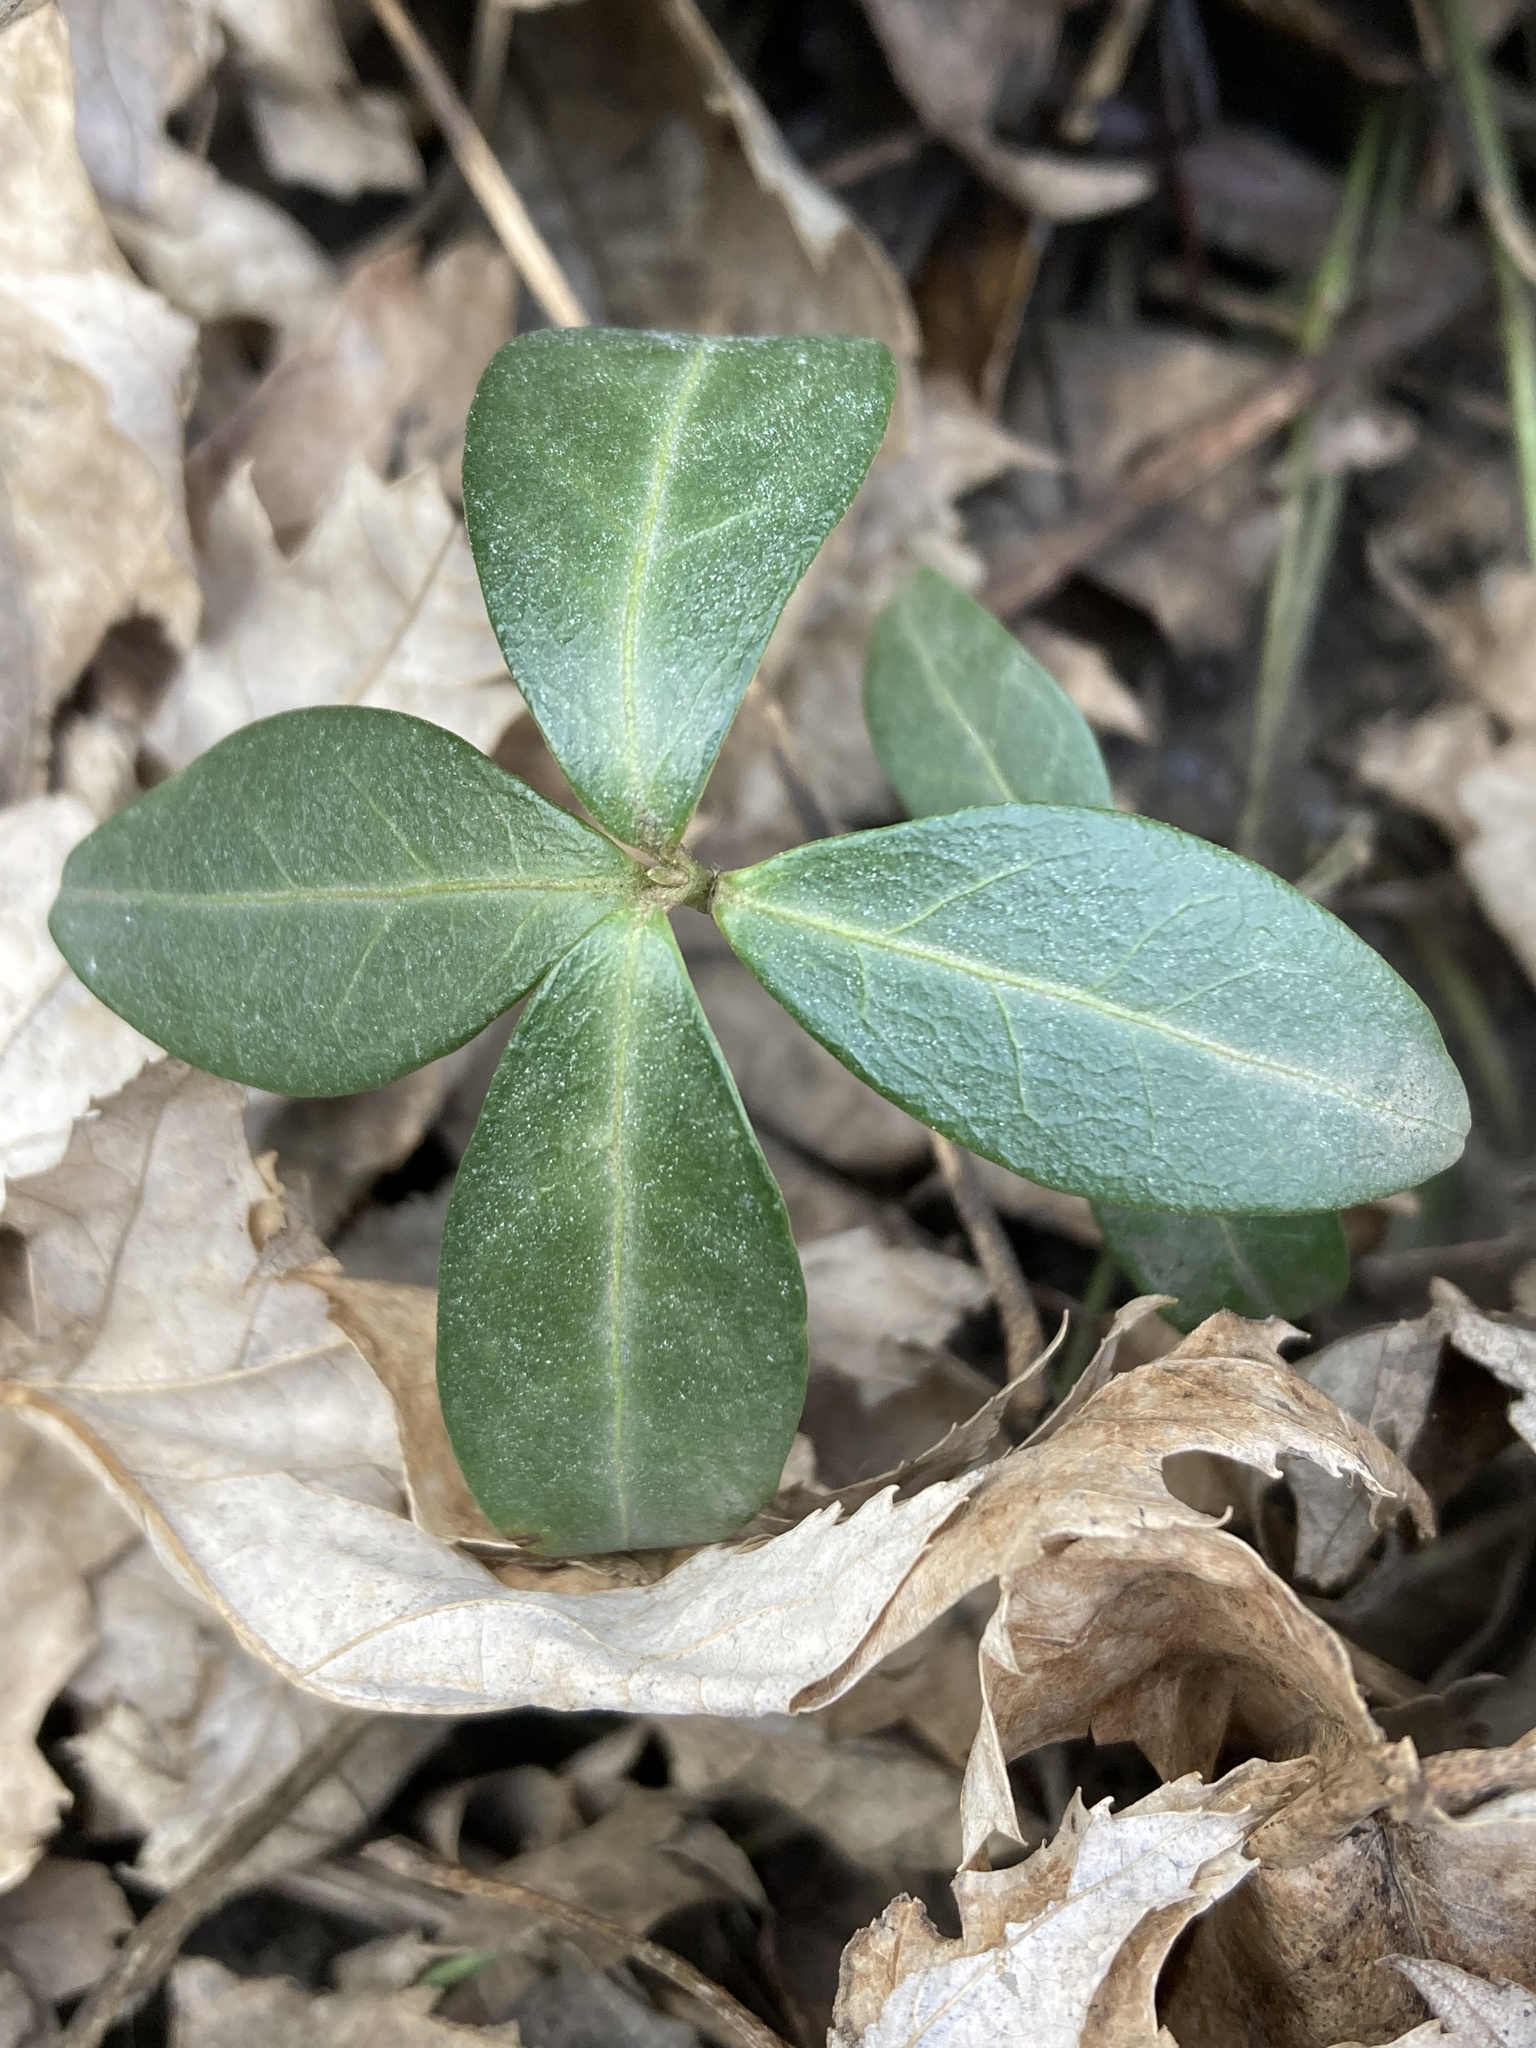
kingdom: Plantae
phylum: Tracheophyta
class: Magnoliopsida
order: Gentianales
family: Apocynaceae
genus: Vinca
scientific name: Vinca minor
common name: Lesser periwinkle
